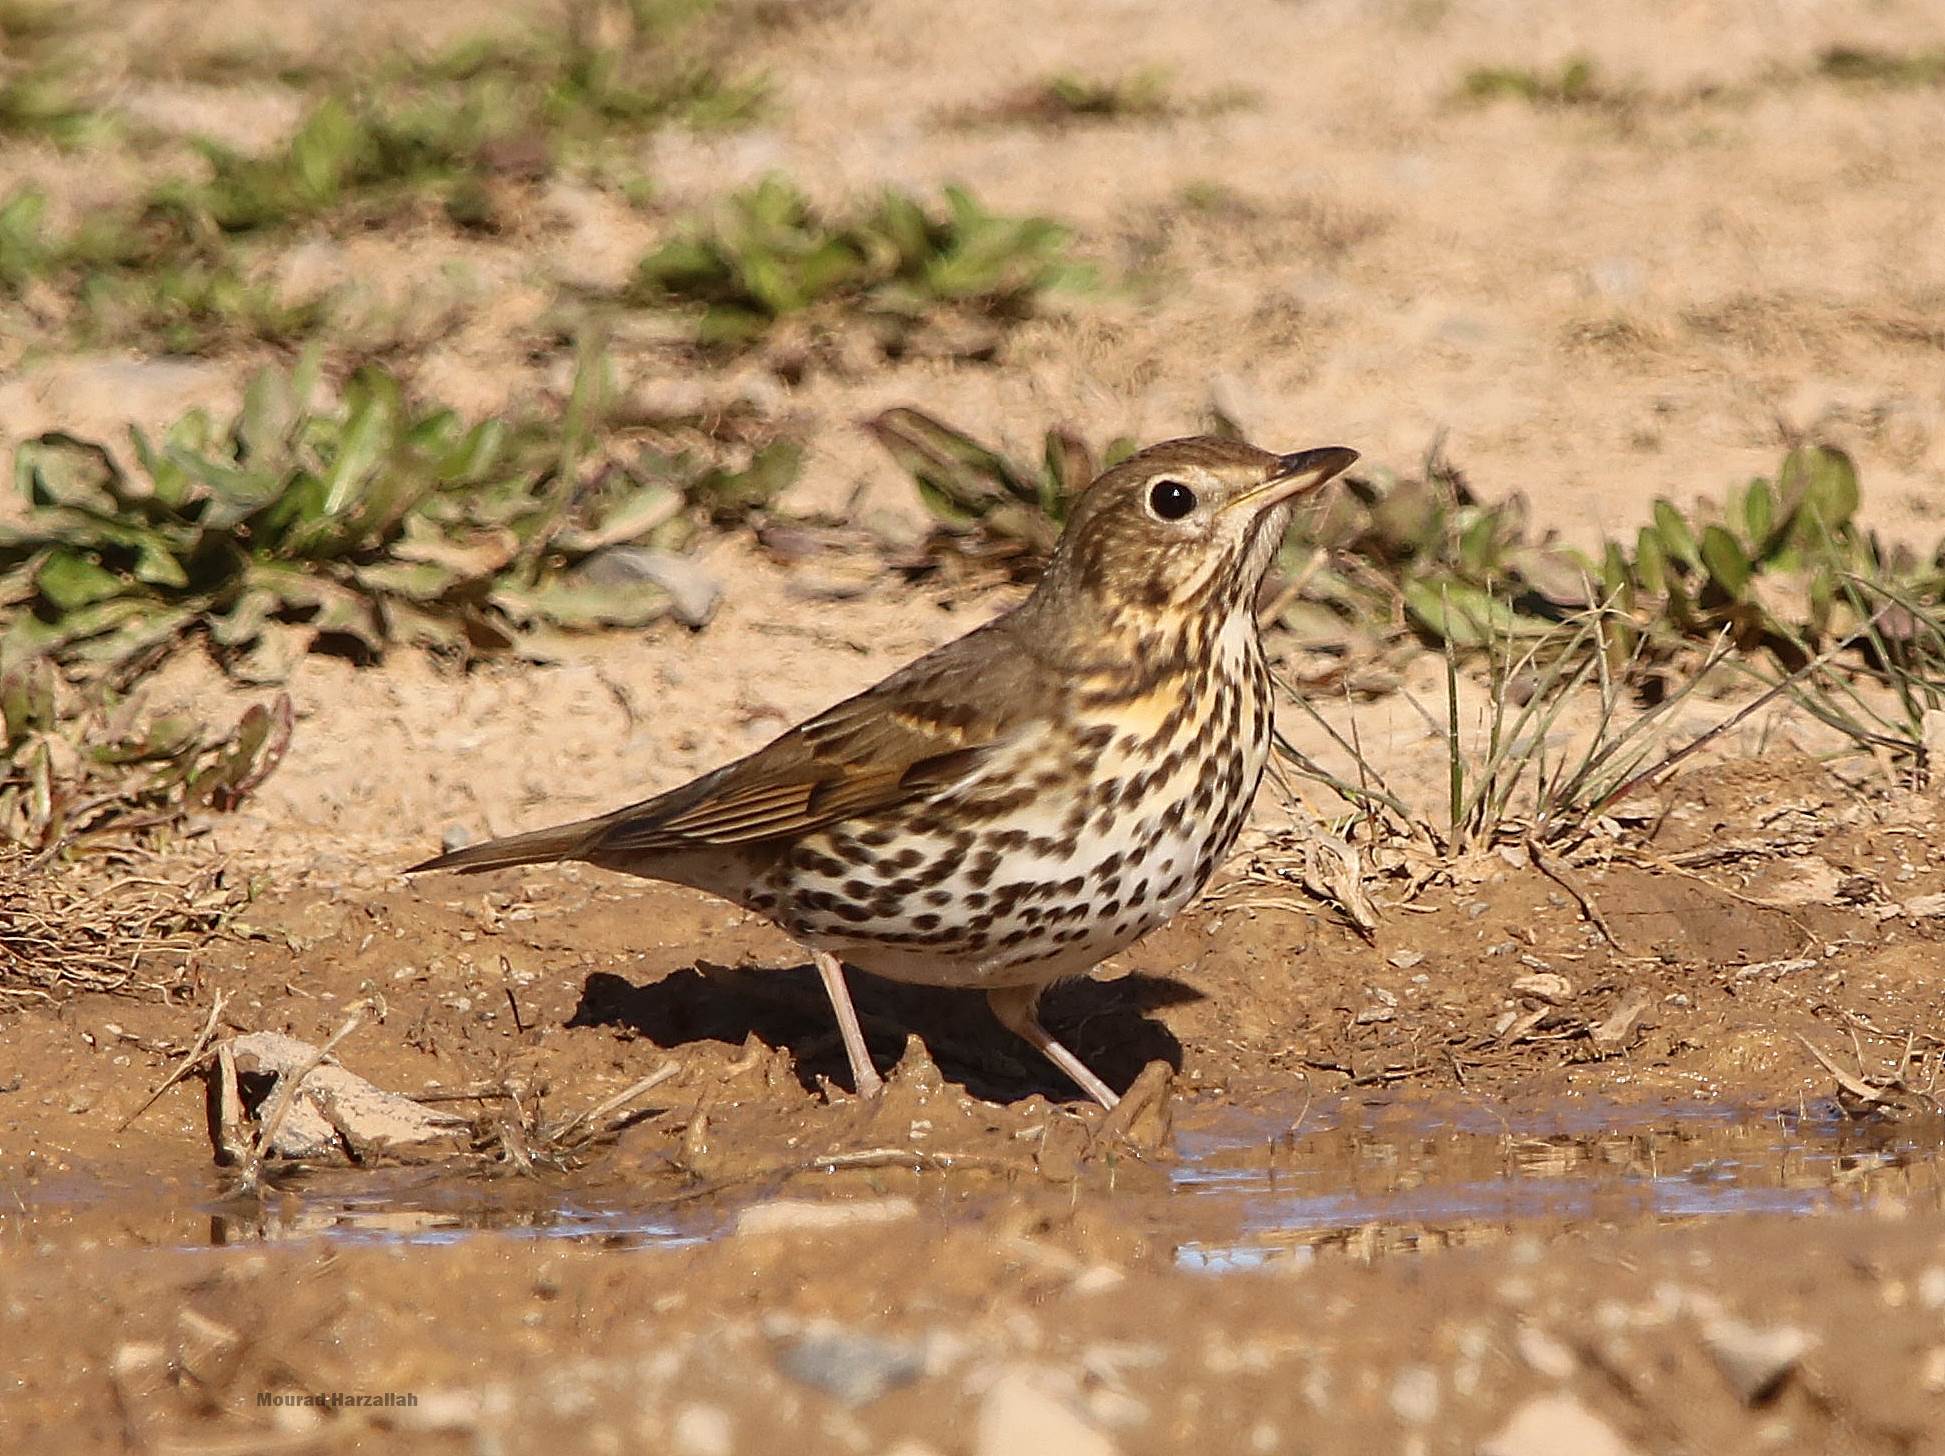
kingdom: Animalia
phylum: Chordata
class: Aves
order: Passeriformes
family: Turdidae
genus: Turdus
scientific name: Turdus philomelos
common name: Song thrush
